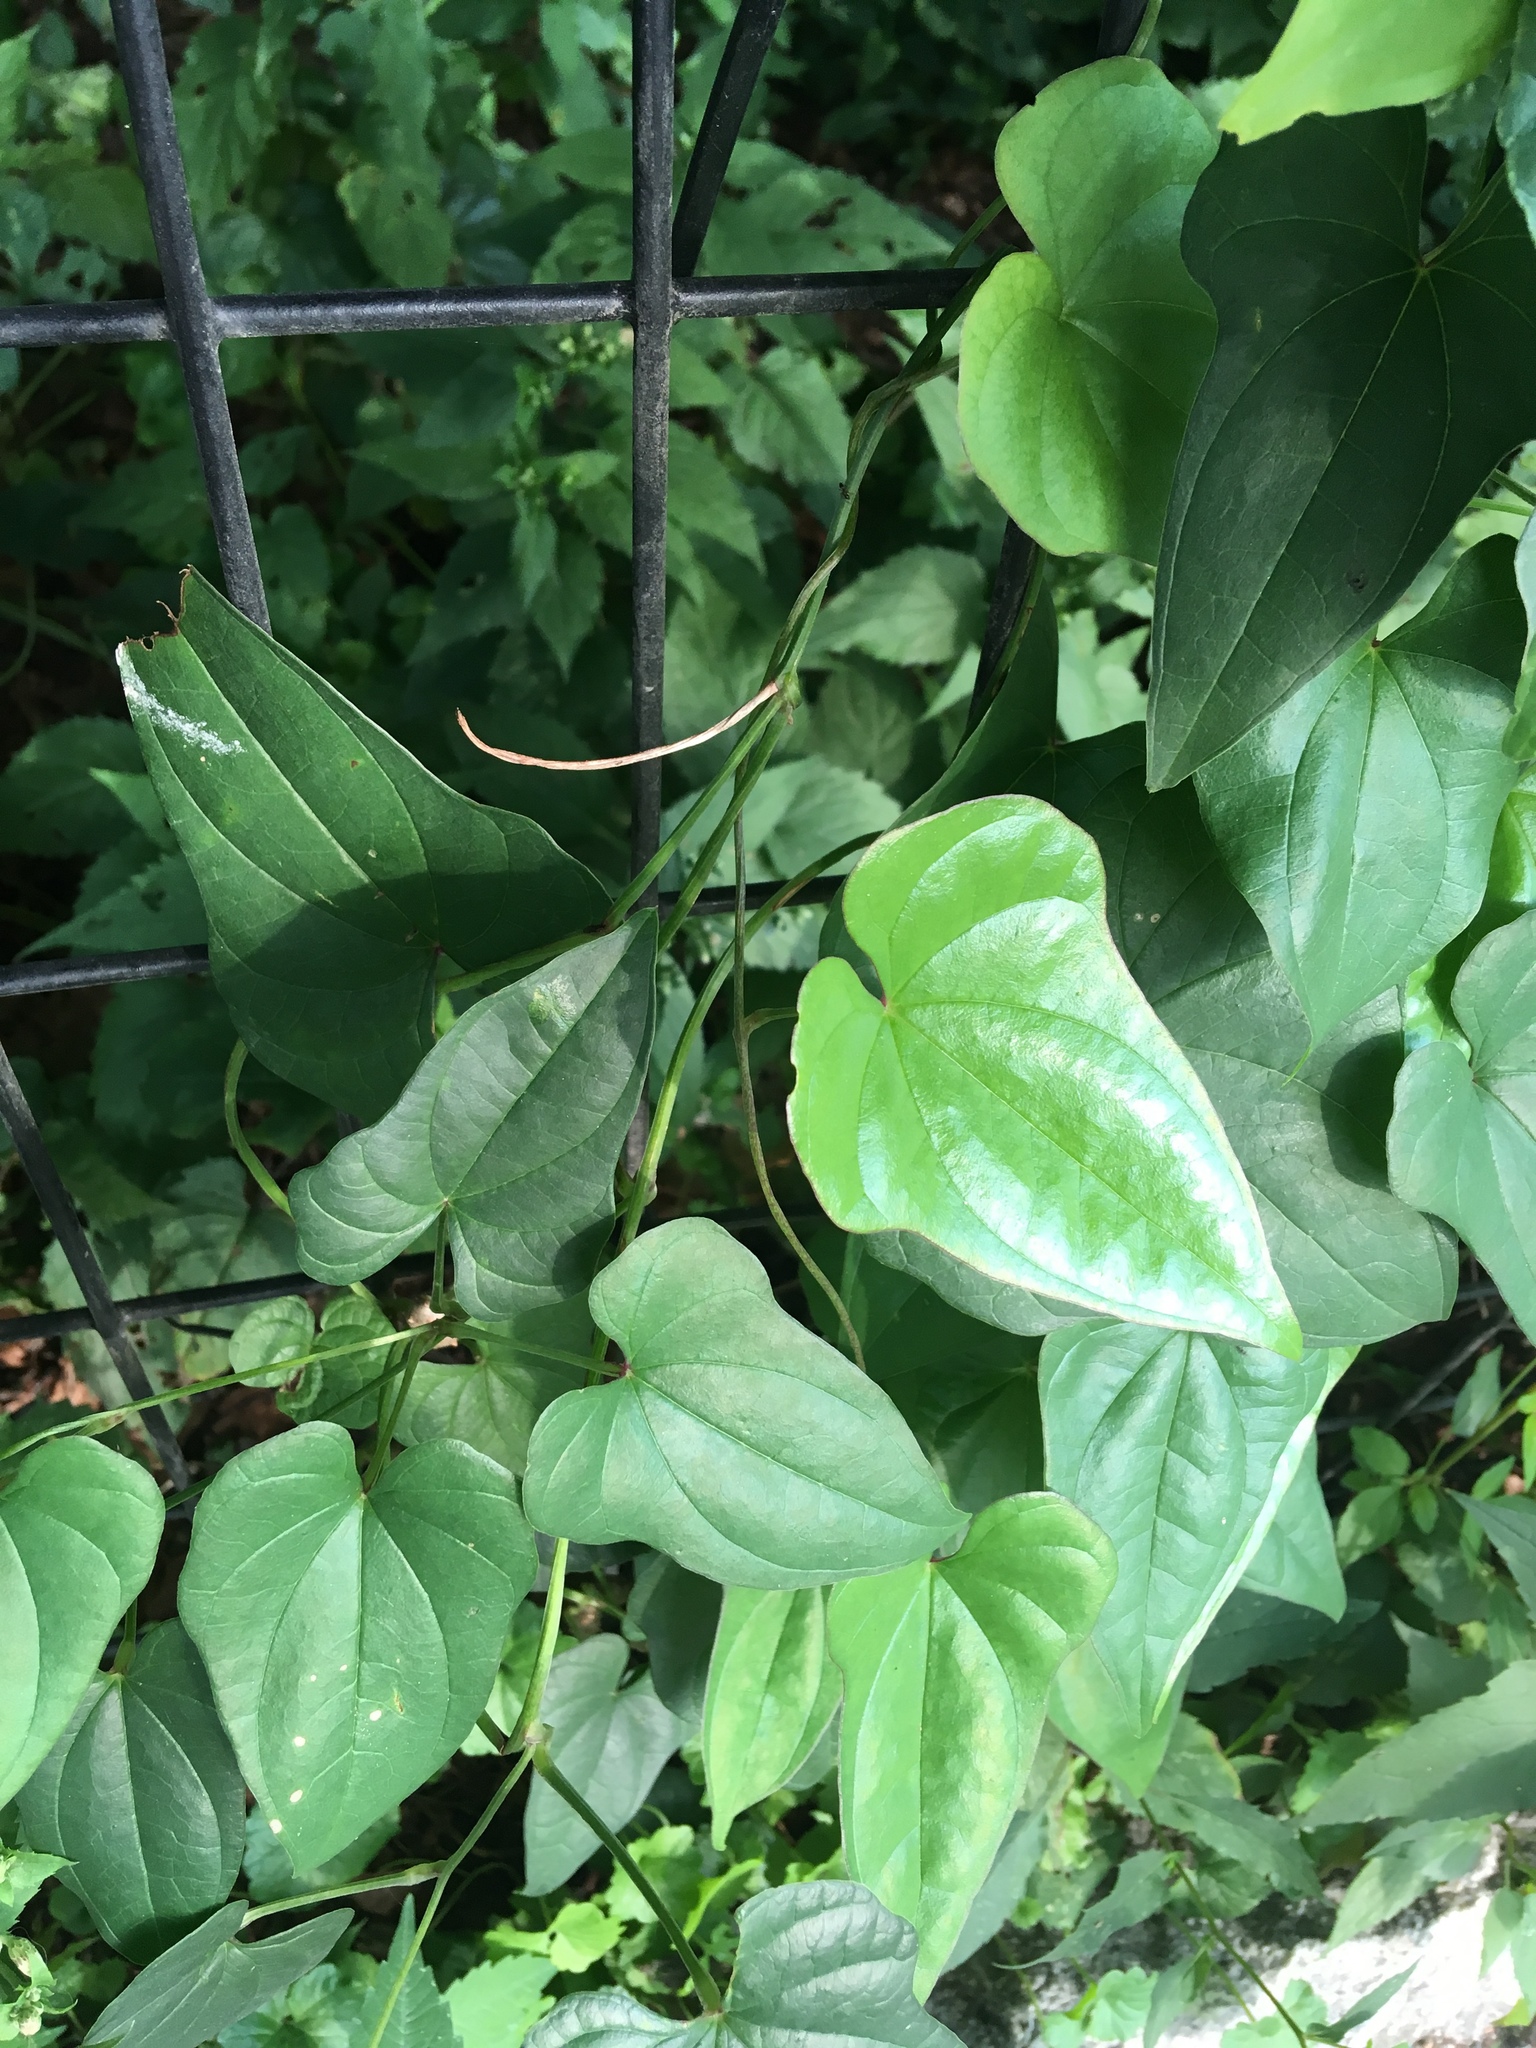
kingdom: Plantae
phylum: Tracheophyta
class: Liliopsida
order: Dioscoreales
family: Dioscoreaceae
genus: Dioscorea
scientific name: Dioscorea polystachya
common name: Chinese yam
